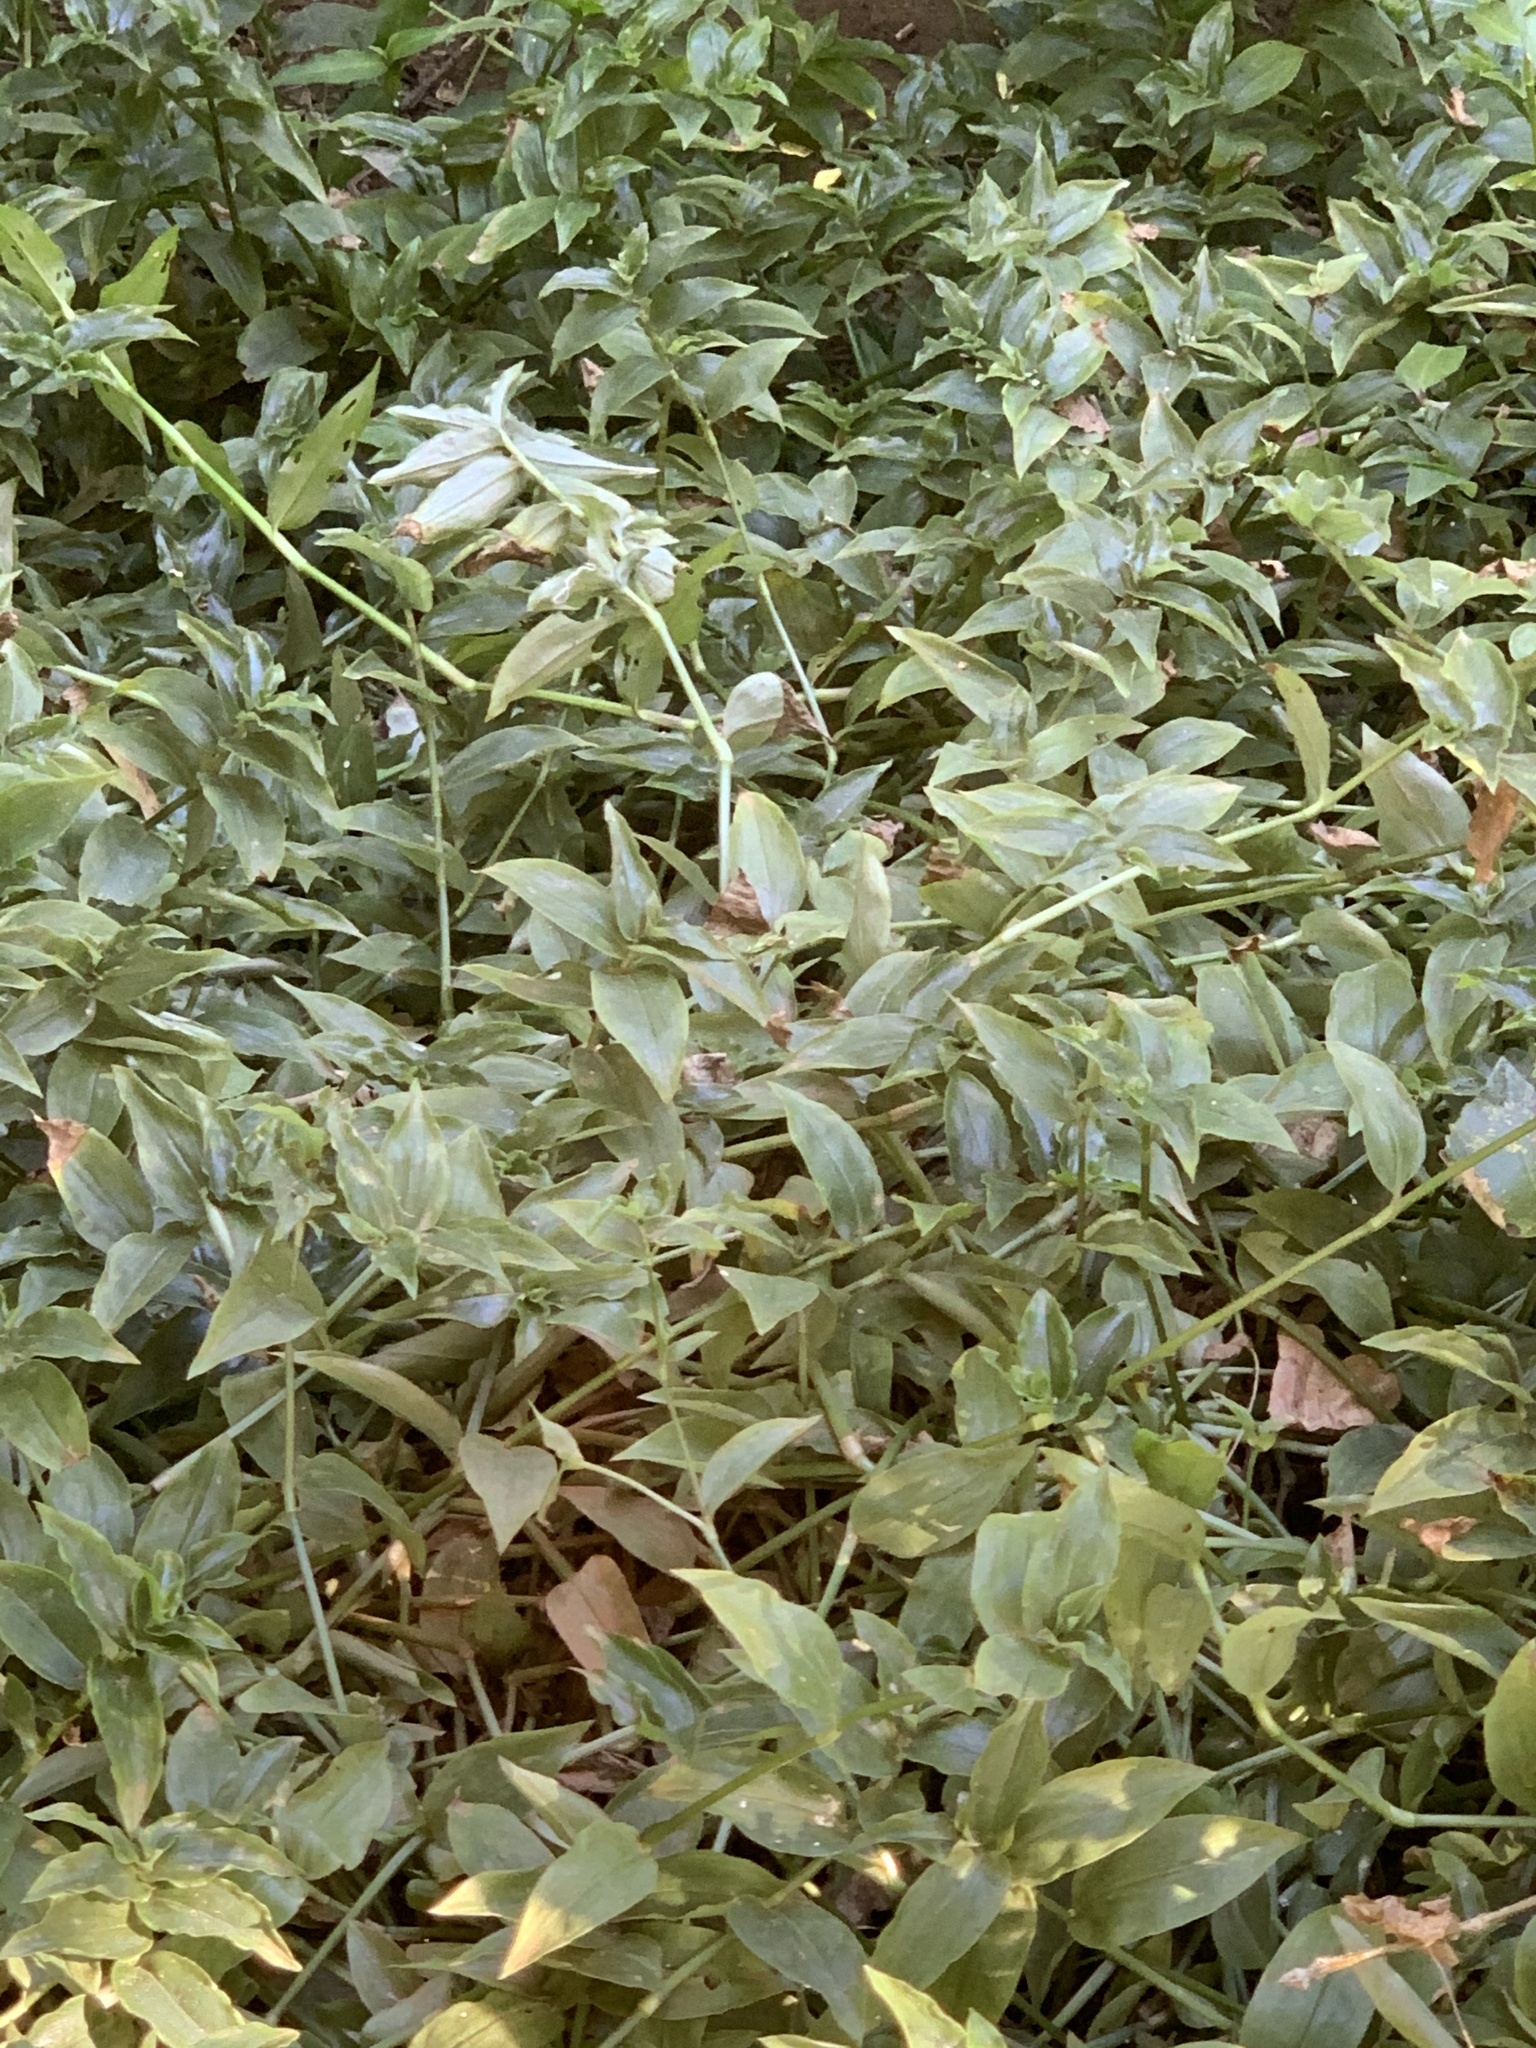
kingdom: Plantae
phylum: Tracheophyta
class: Liliopsida
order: Commelinales
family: Commelinaceae
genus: Tradescantia
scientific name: Tradescantia fluminensis
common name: Wandering-jew
